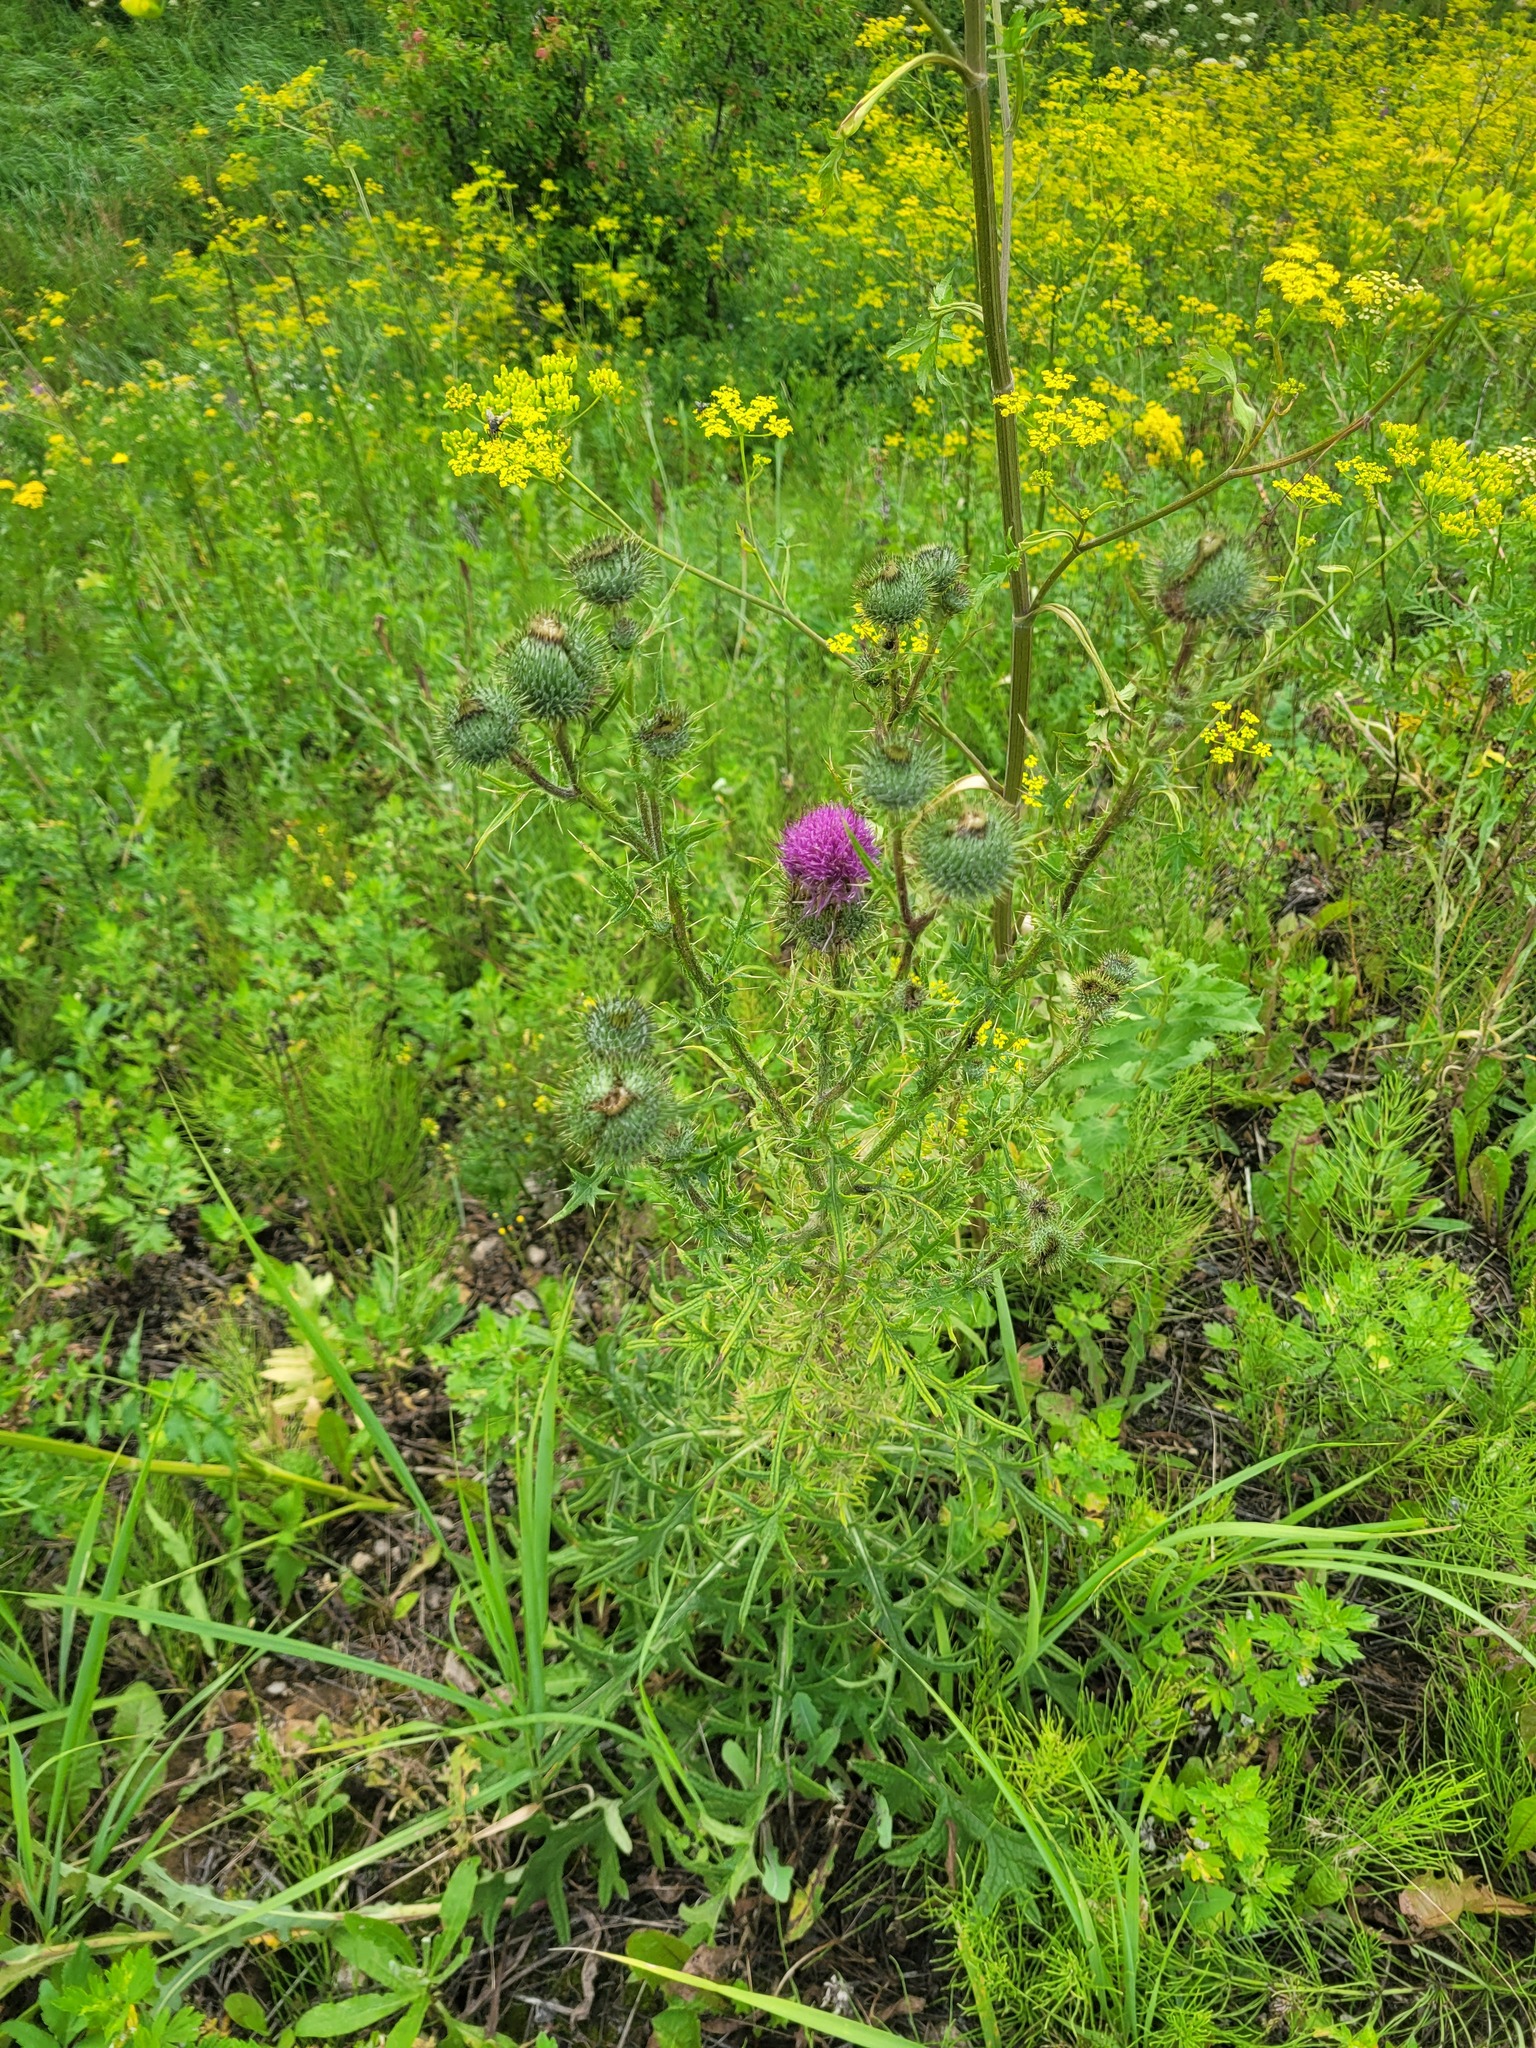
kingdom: Plantae
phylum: Tracheophyta
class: Magnoliopsida
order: Asterales
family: Asteraceae
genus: Cirsium
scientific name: Cirsium vulgare
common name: Bull thistle
